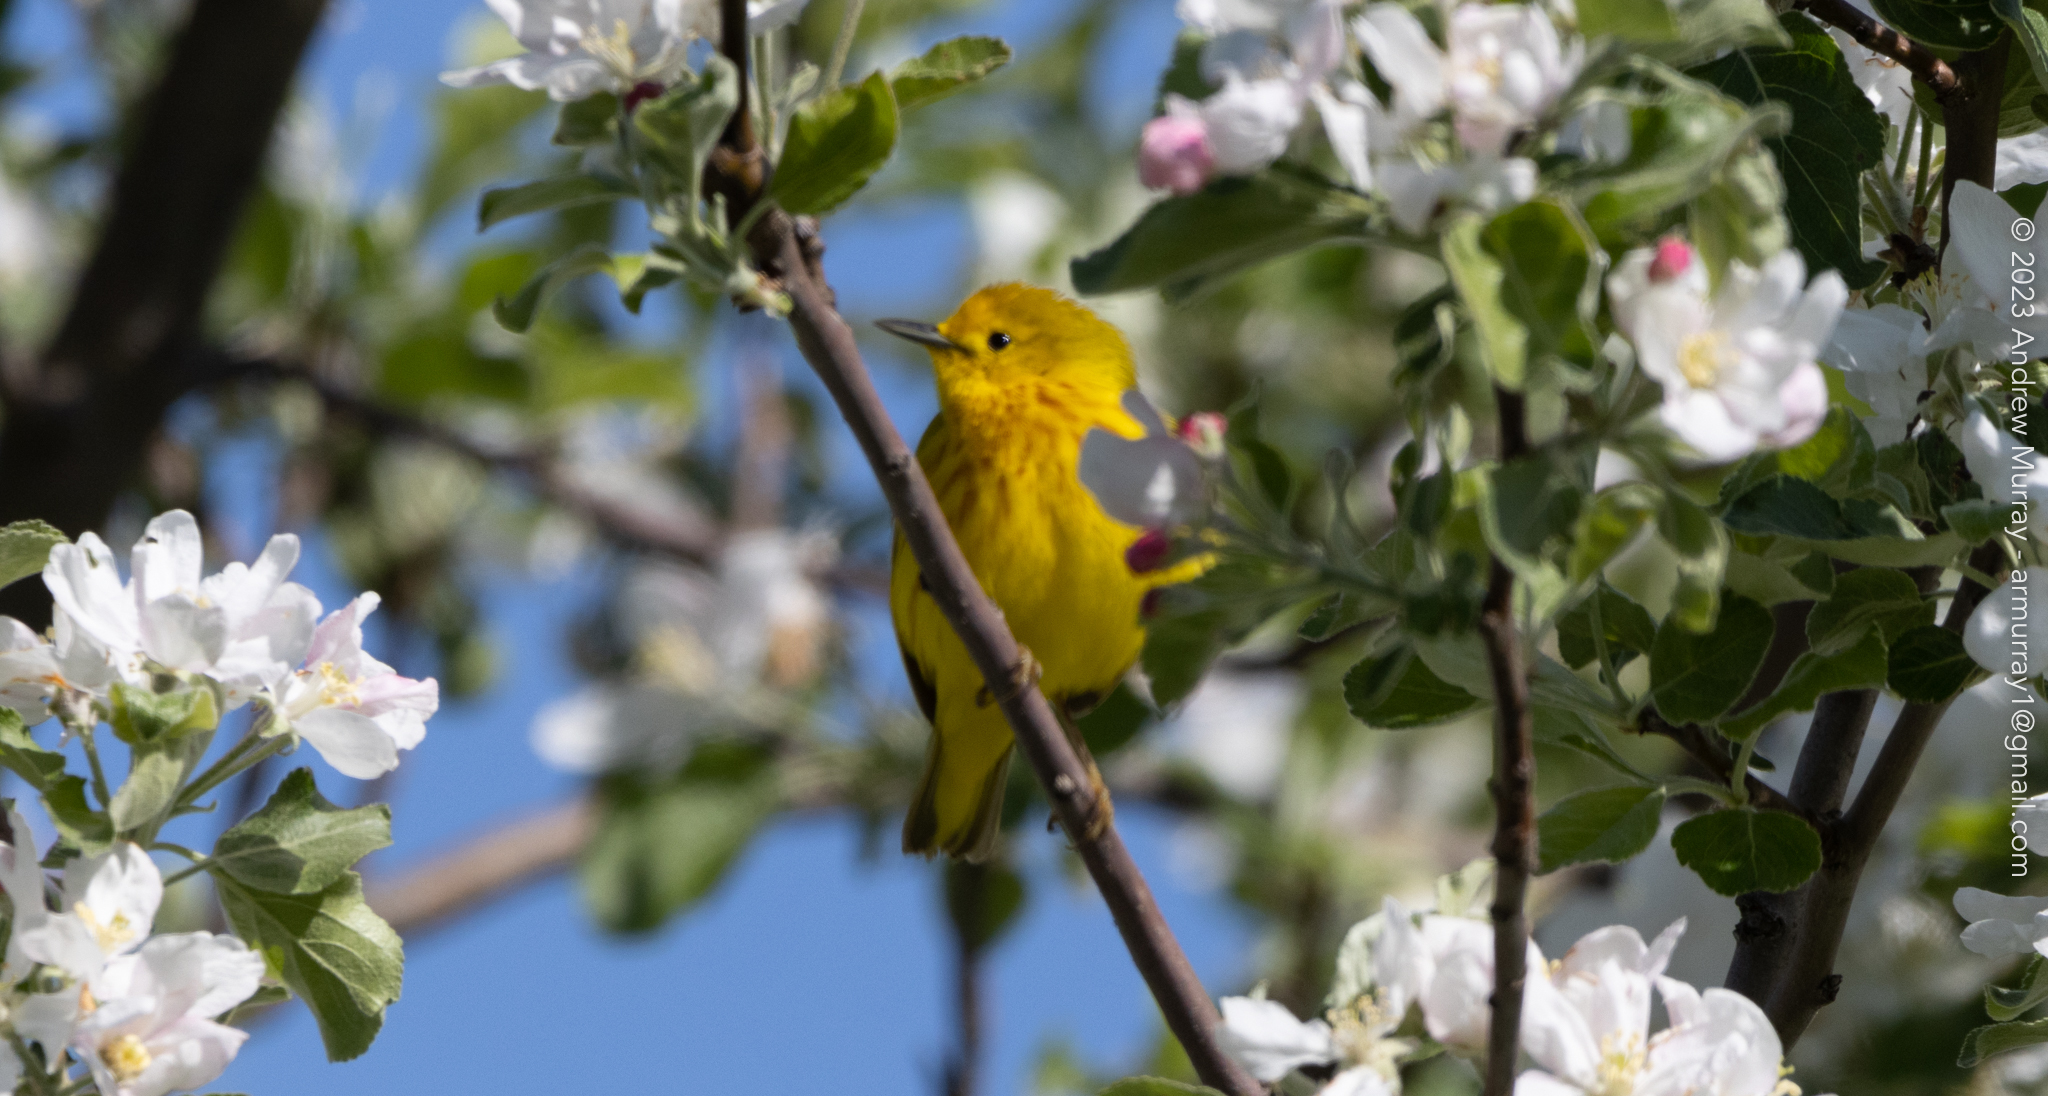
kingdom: Animalia
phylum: Chordata
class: Aves
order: Passeriformes
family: Parulidae
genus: Setophaga
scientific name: Setophaga petechia
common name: Yellow warbler
